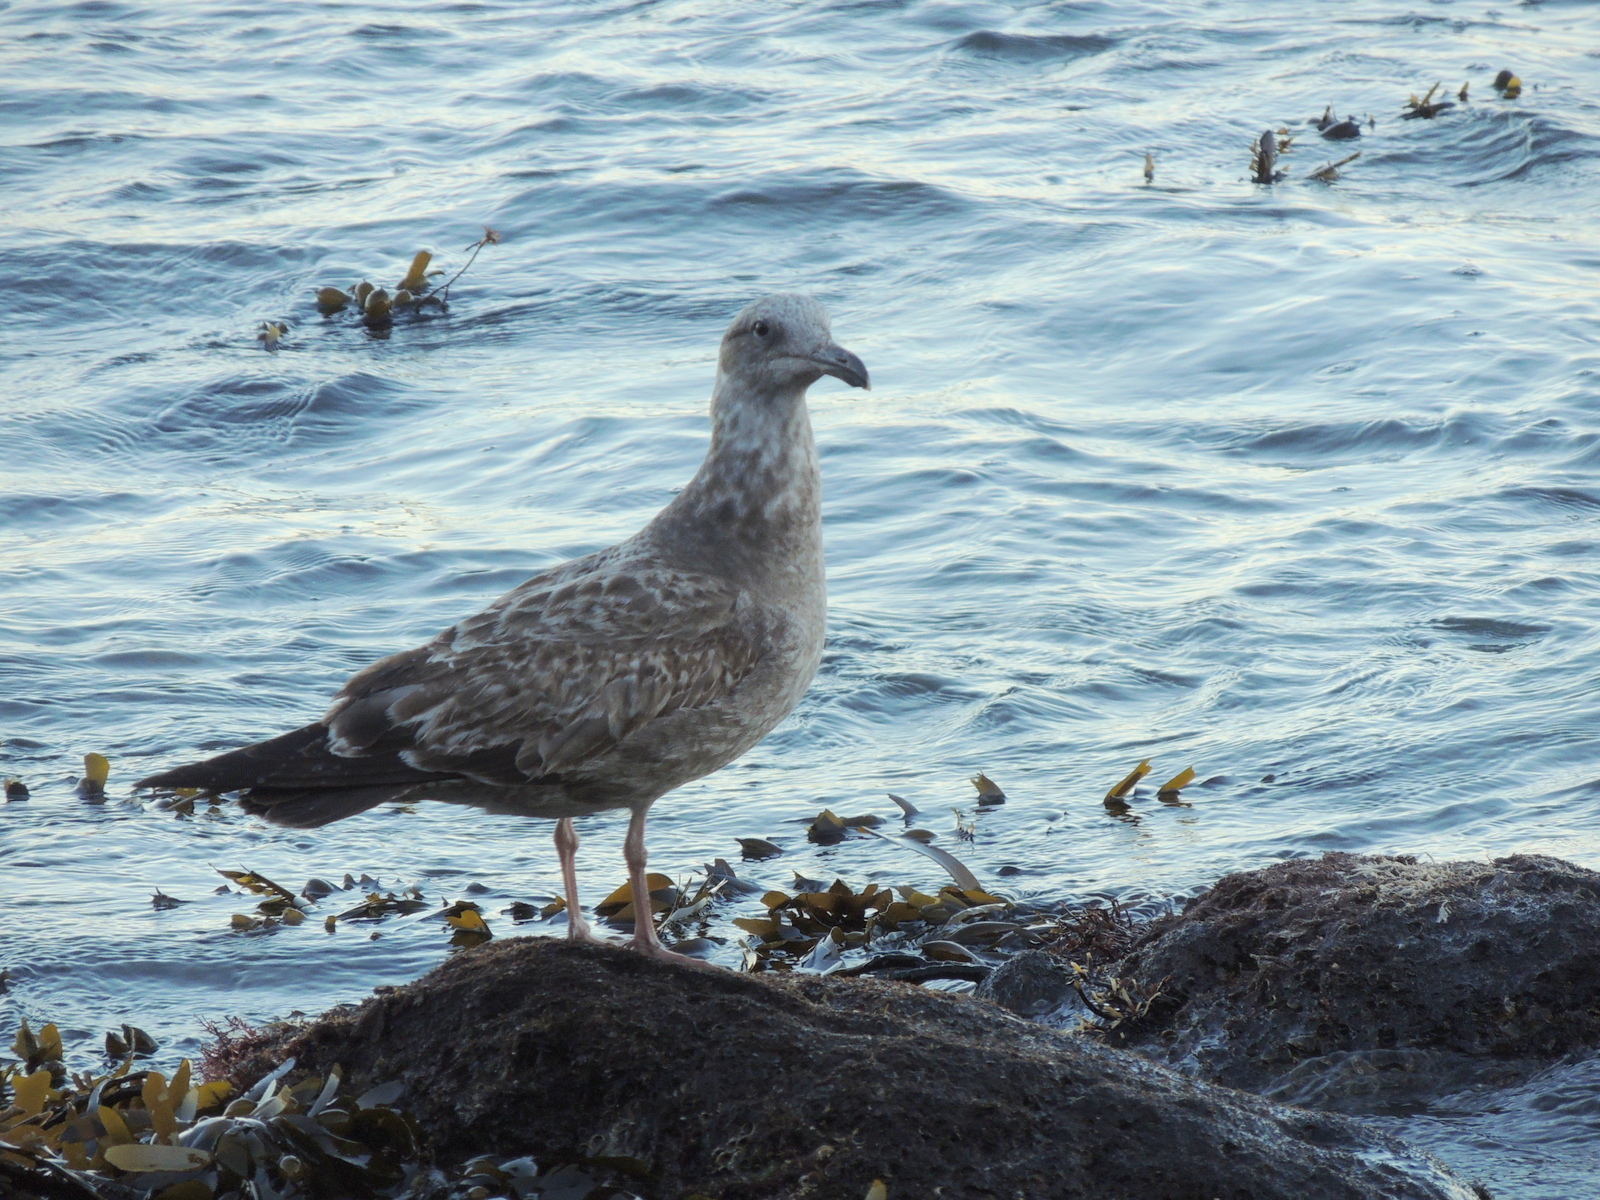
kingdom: Animalia
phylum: Chordata
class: Aves
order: Charadriiformes
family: Laridae
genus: Larus
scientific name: Larus occidentalis
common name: Western gull
